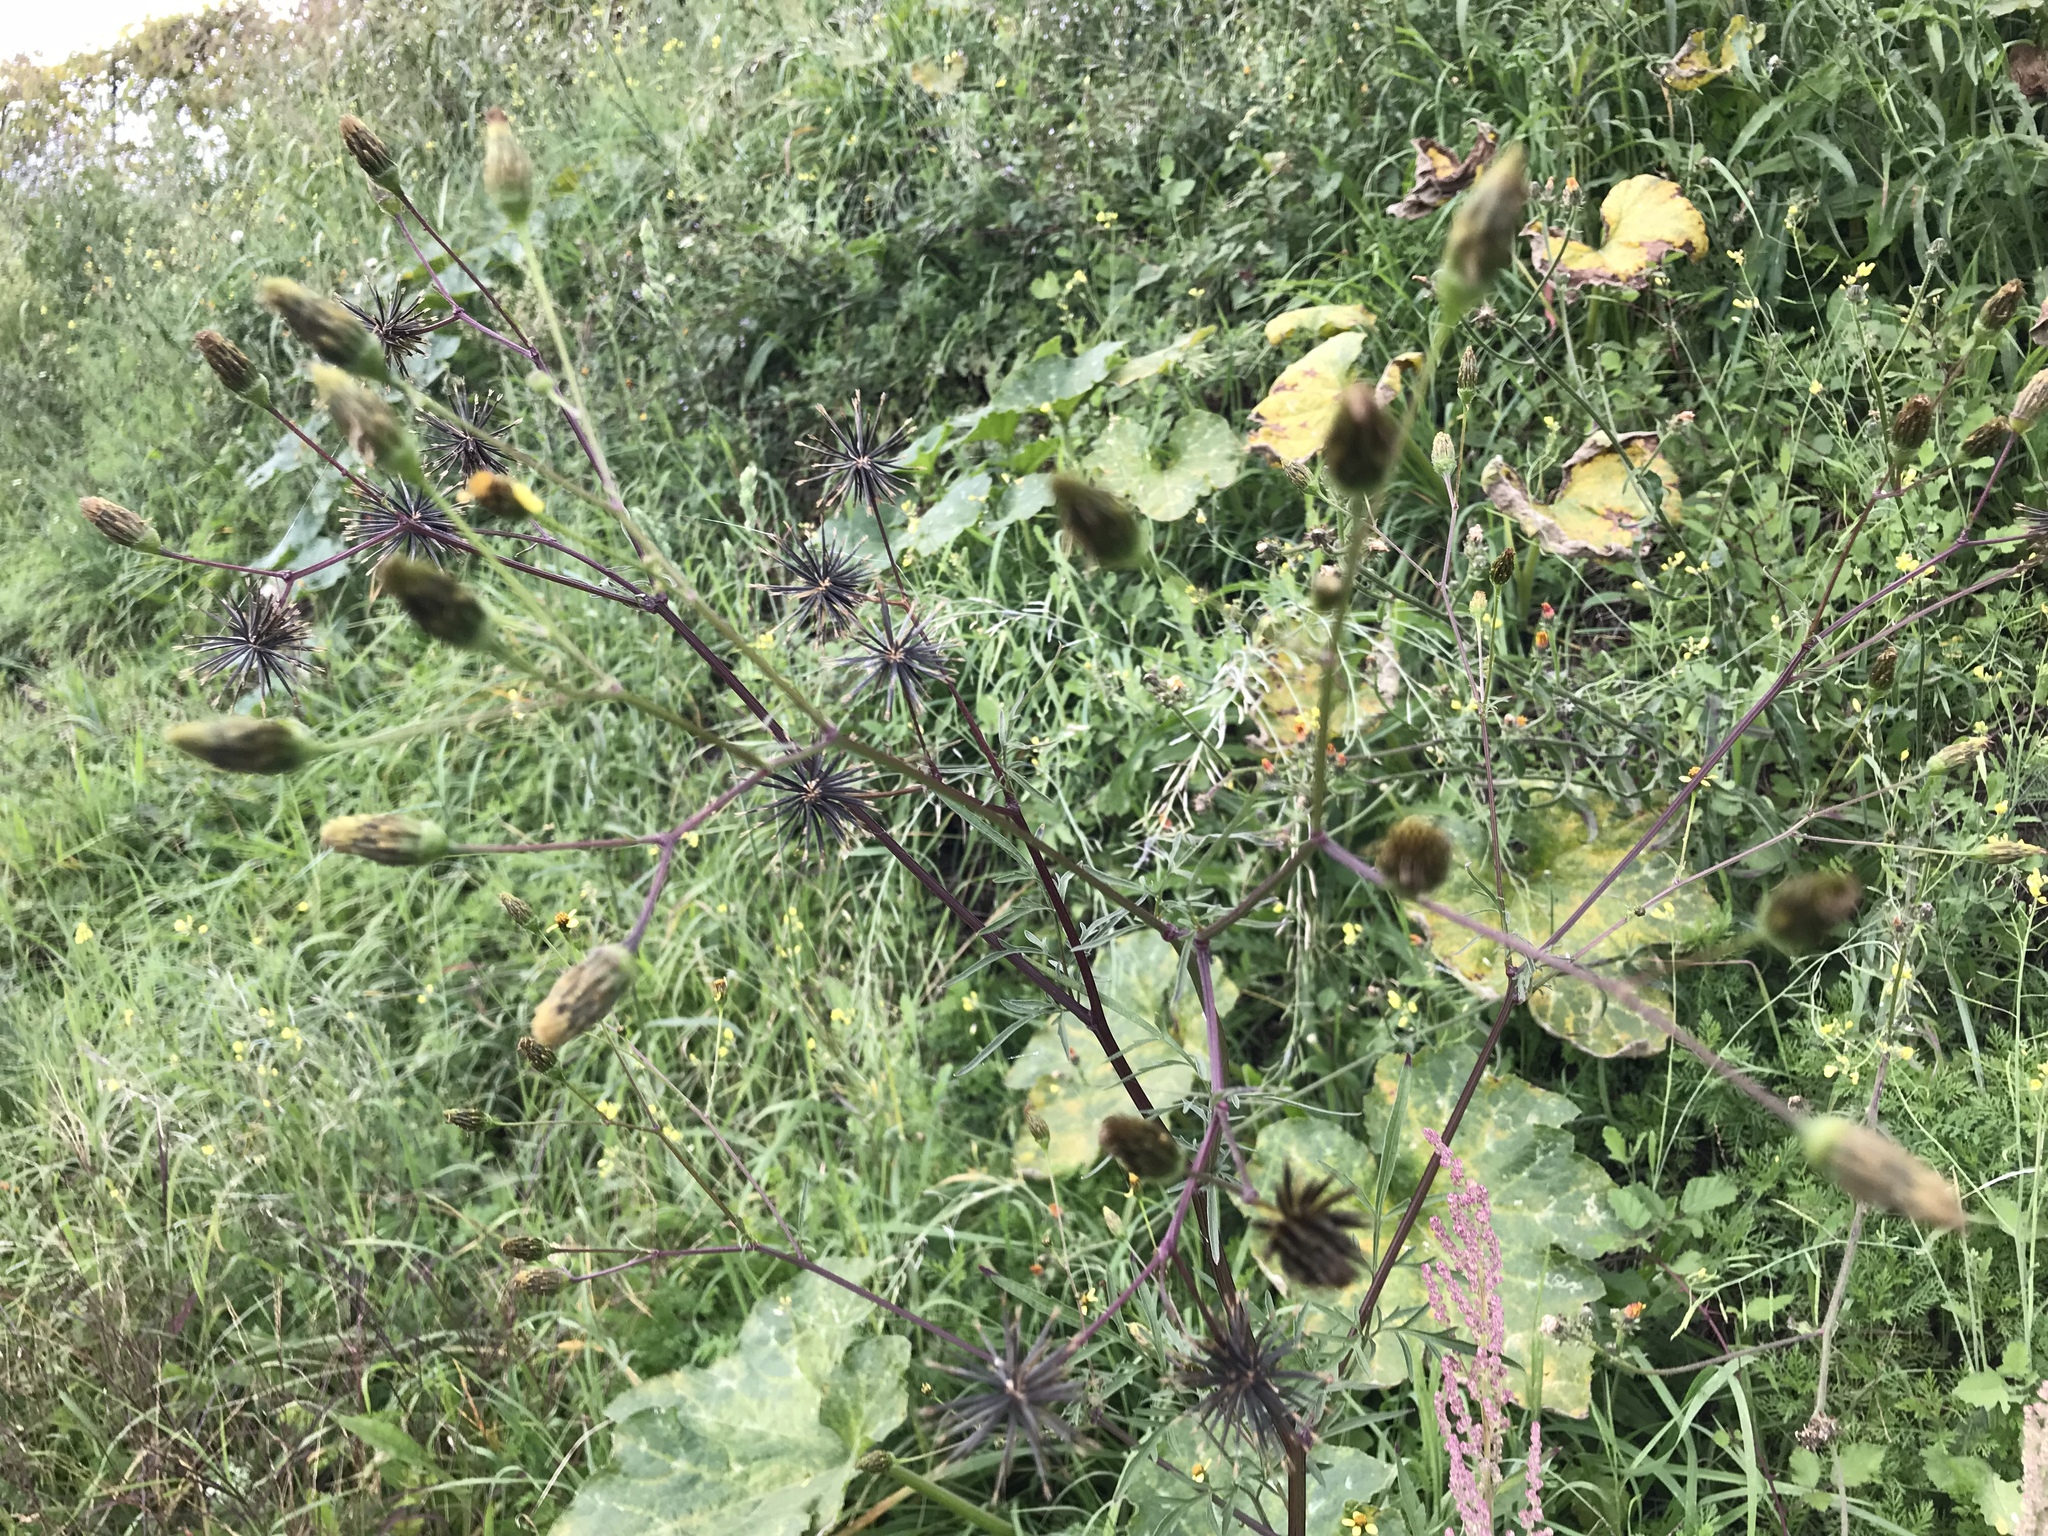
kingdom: Plantae
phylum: Tracheophyta
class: Magnoliopsida
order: Asterales
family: Asteraceae
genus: Bidens
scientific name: Bidens subalternans
